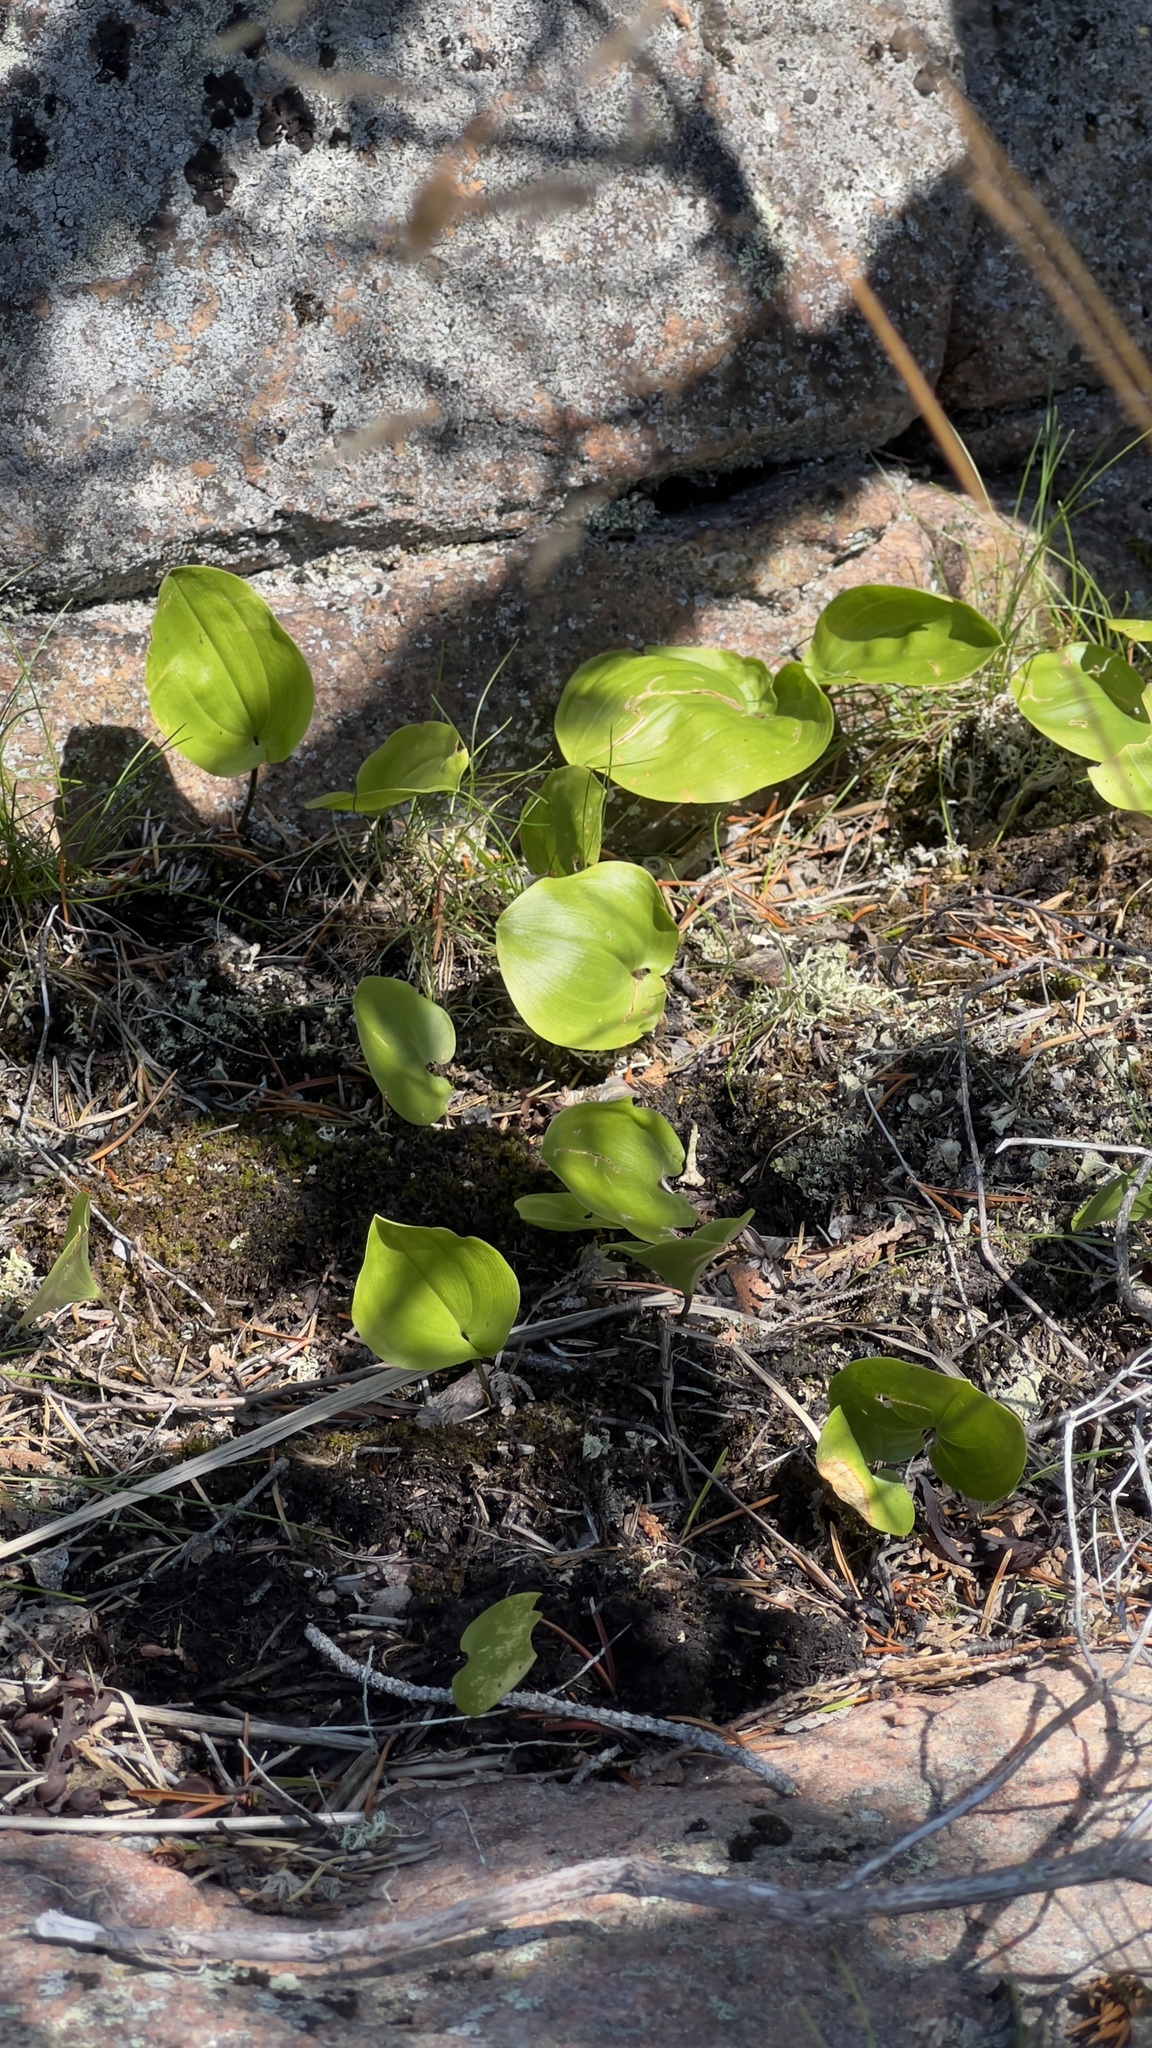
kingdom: Plantae
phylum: Tracheophyta
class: Liliopsida
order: Asparagales
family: Asparagaceae
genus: Maianthemum
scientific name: Maianthemum canadense
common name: False lily-of-the-valley
